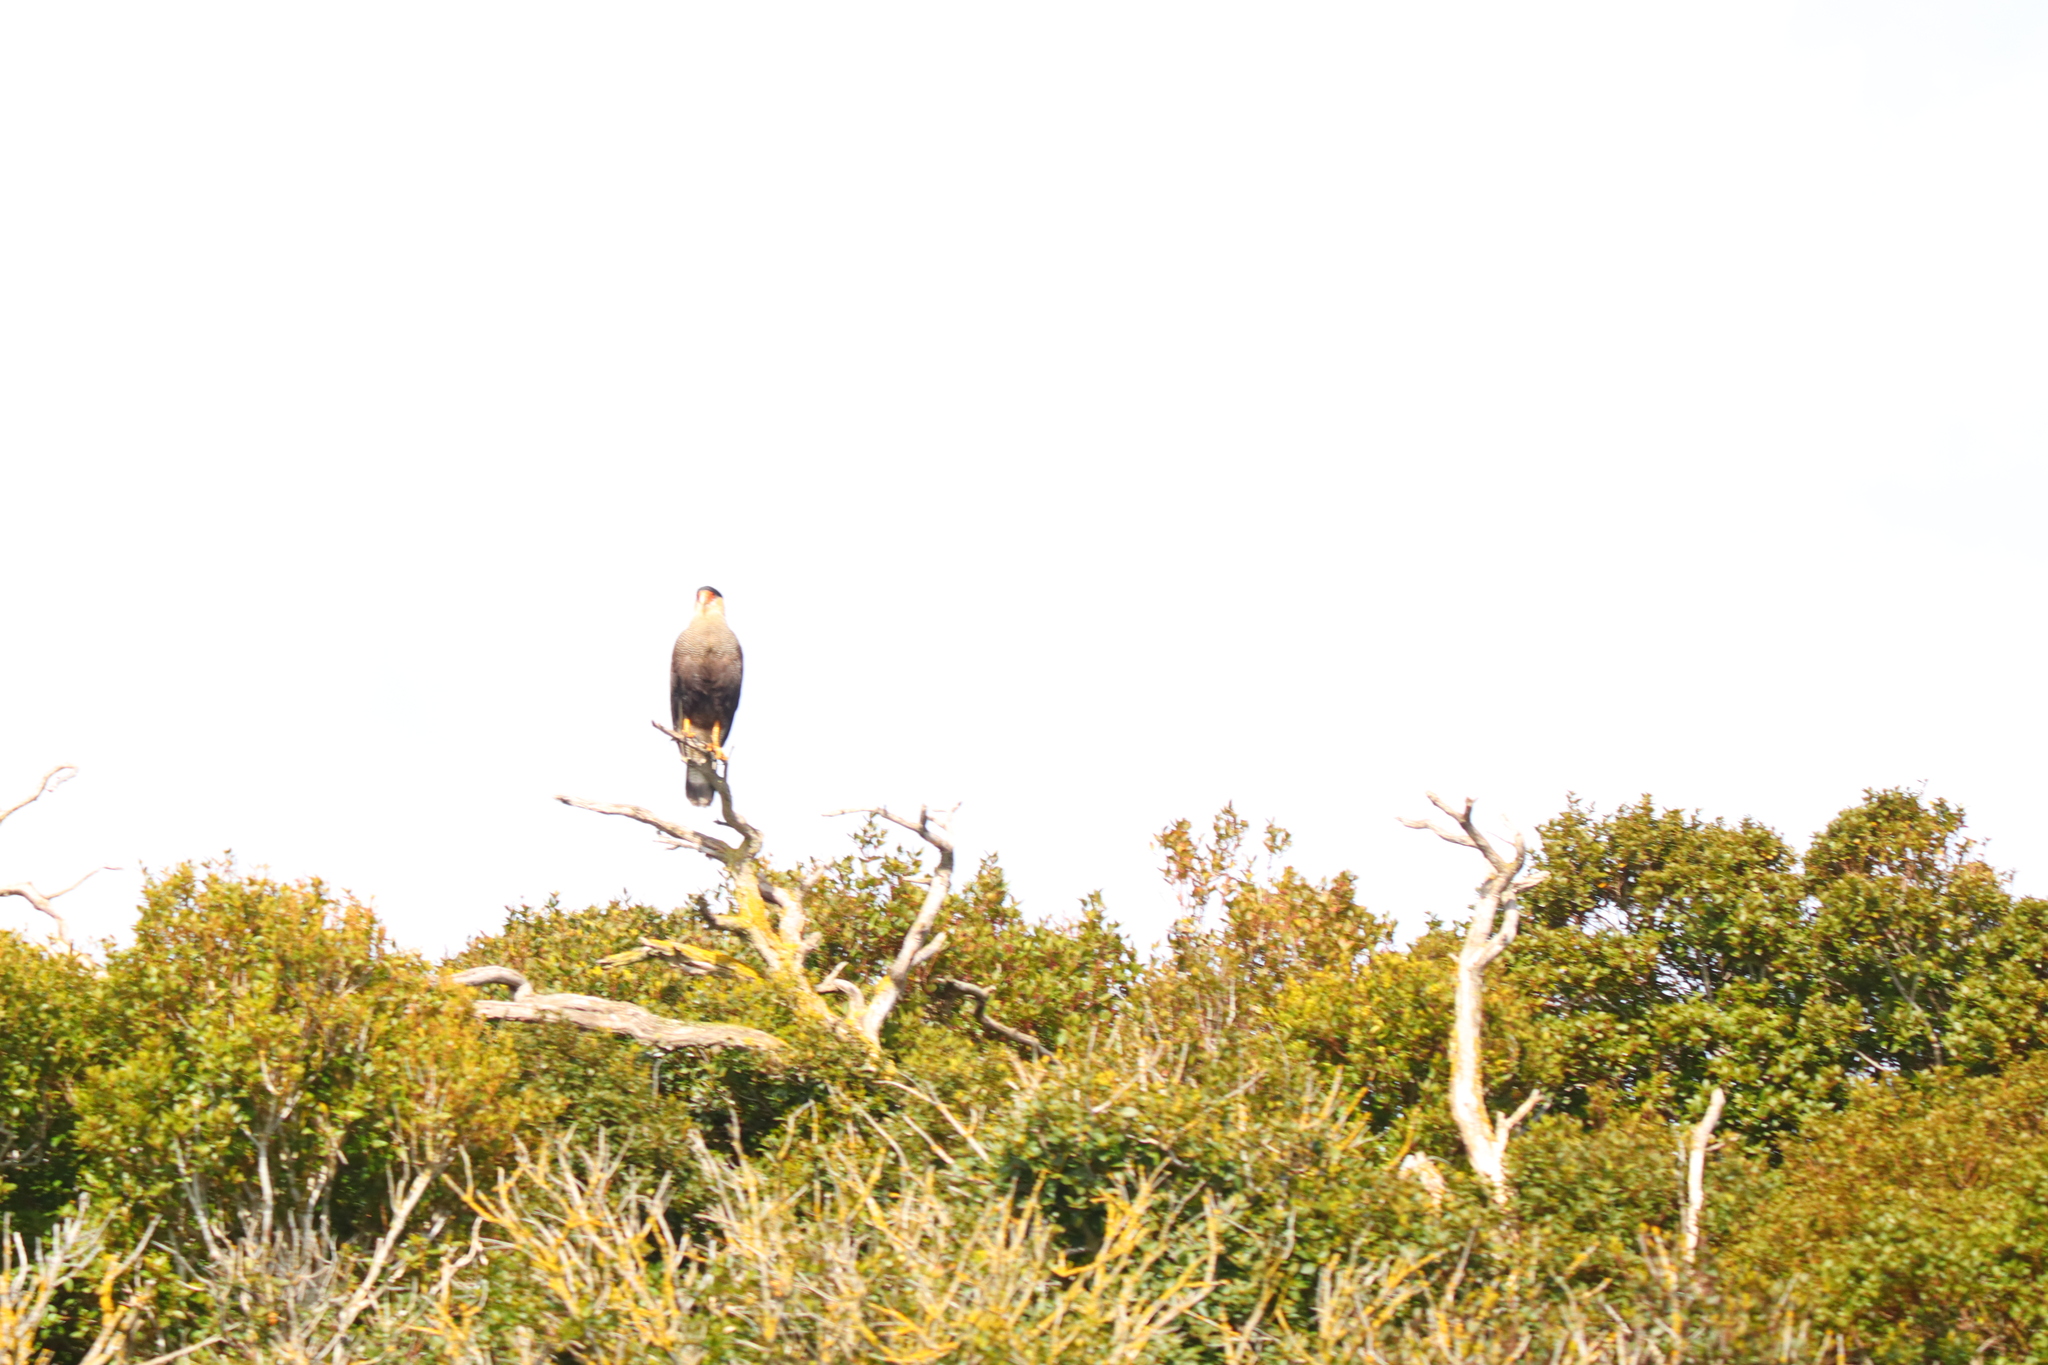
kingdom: Animalia
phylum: Chordata
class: Aves
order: Falconiformes
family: Falconidae
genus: Caracara
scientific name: Caracara plancus
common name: Southern caracara
